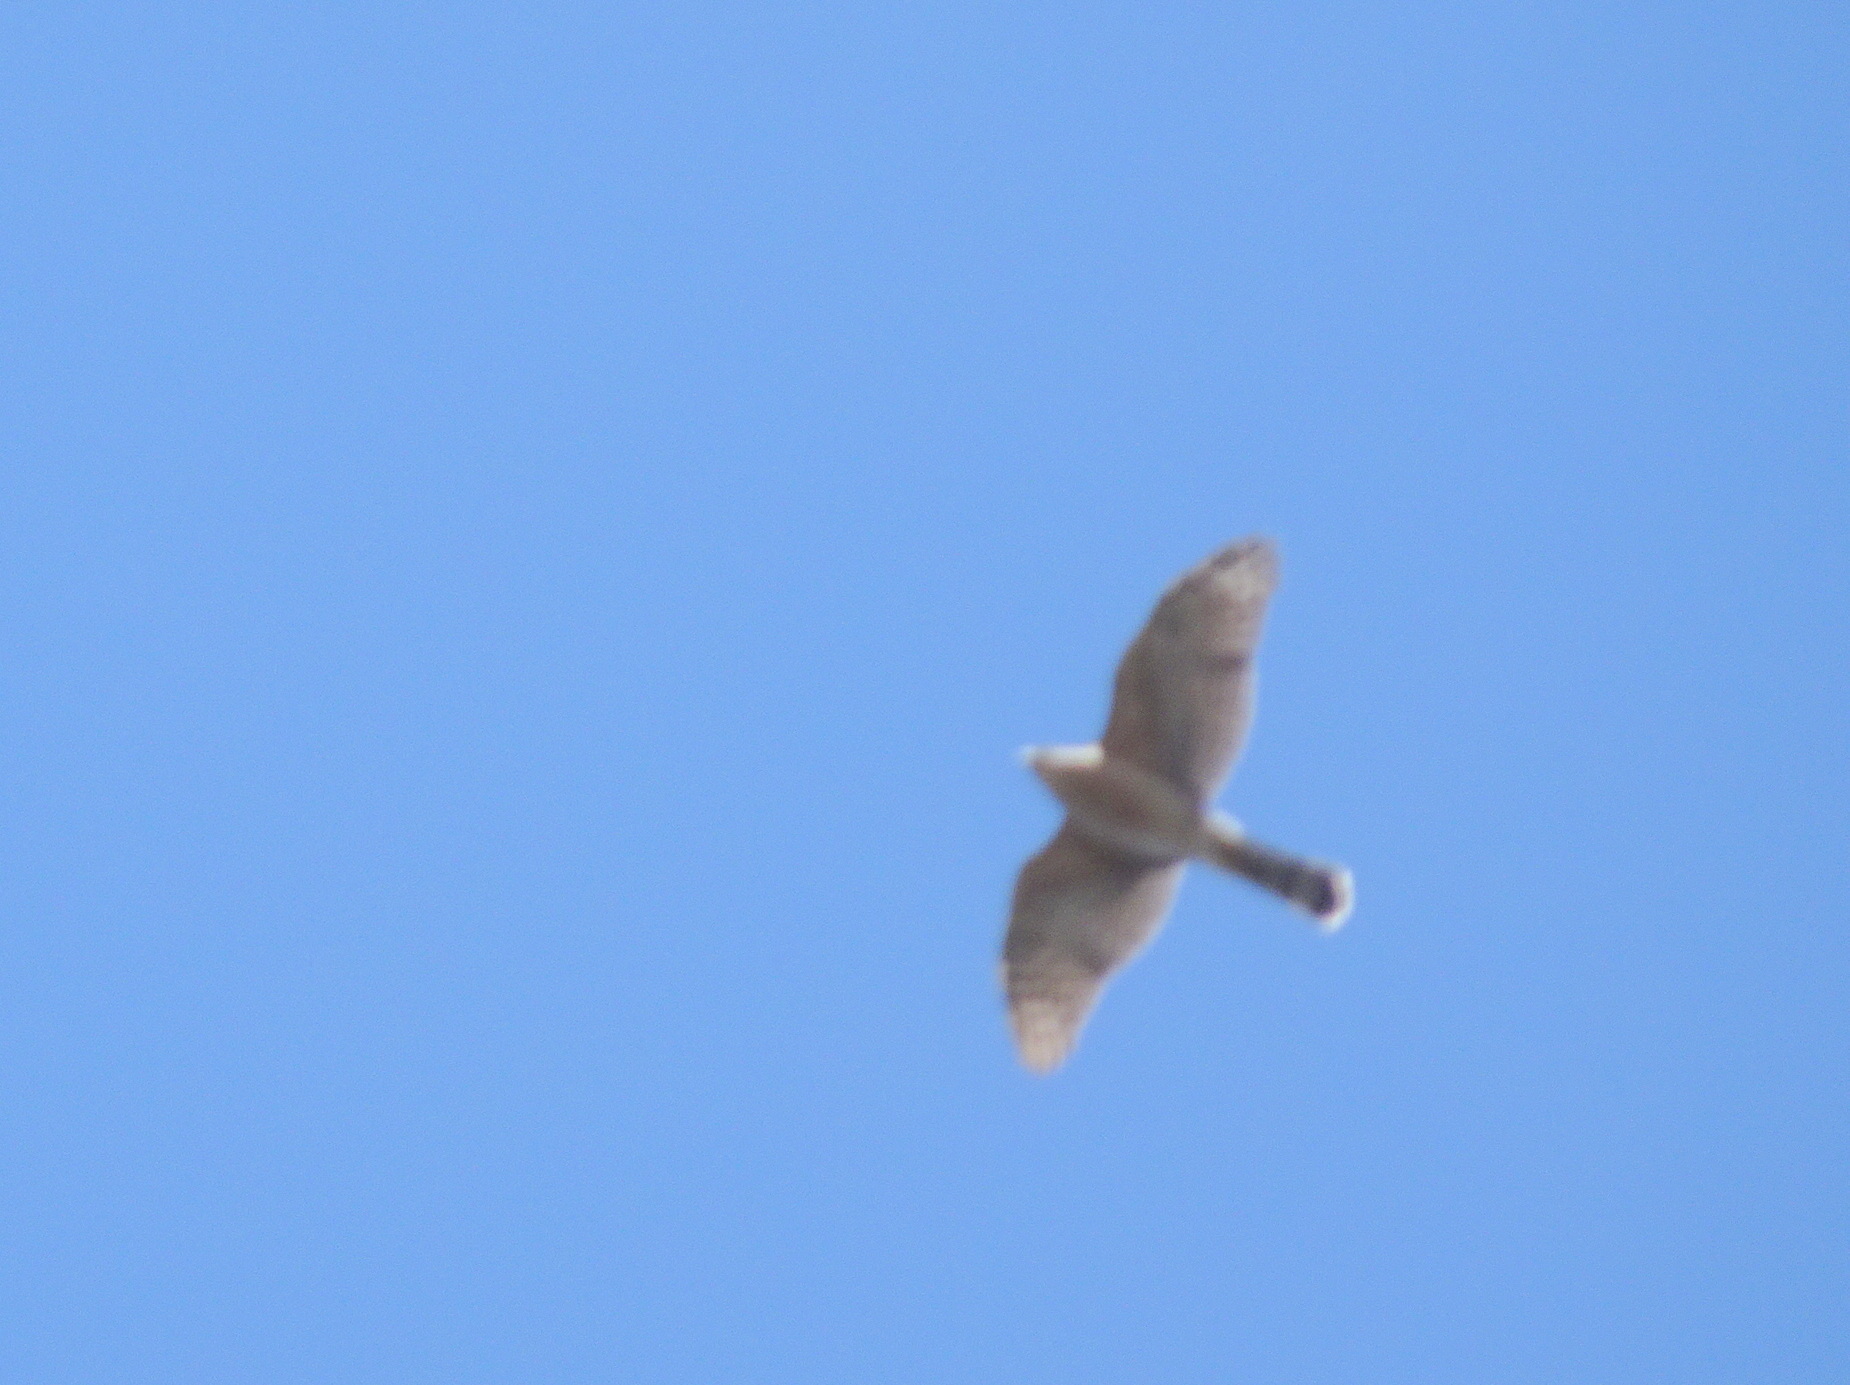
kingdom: Animalia
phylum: Chordata
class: Aves
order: Accipitriformes
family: Accipitridae
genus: Accipiter
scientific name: Accipiter cooperii
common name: Cooper's hawk
